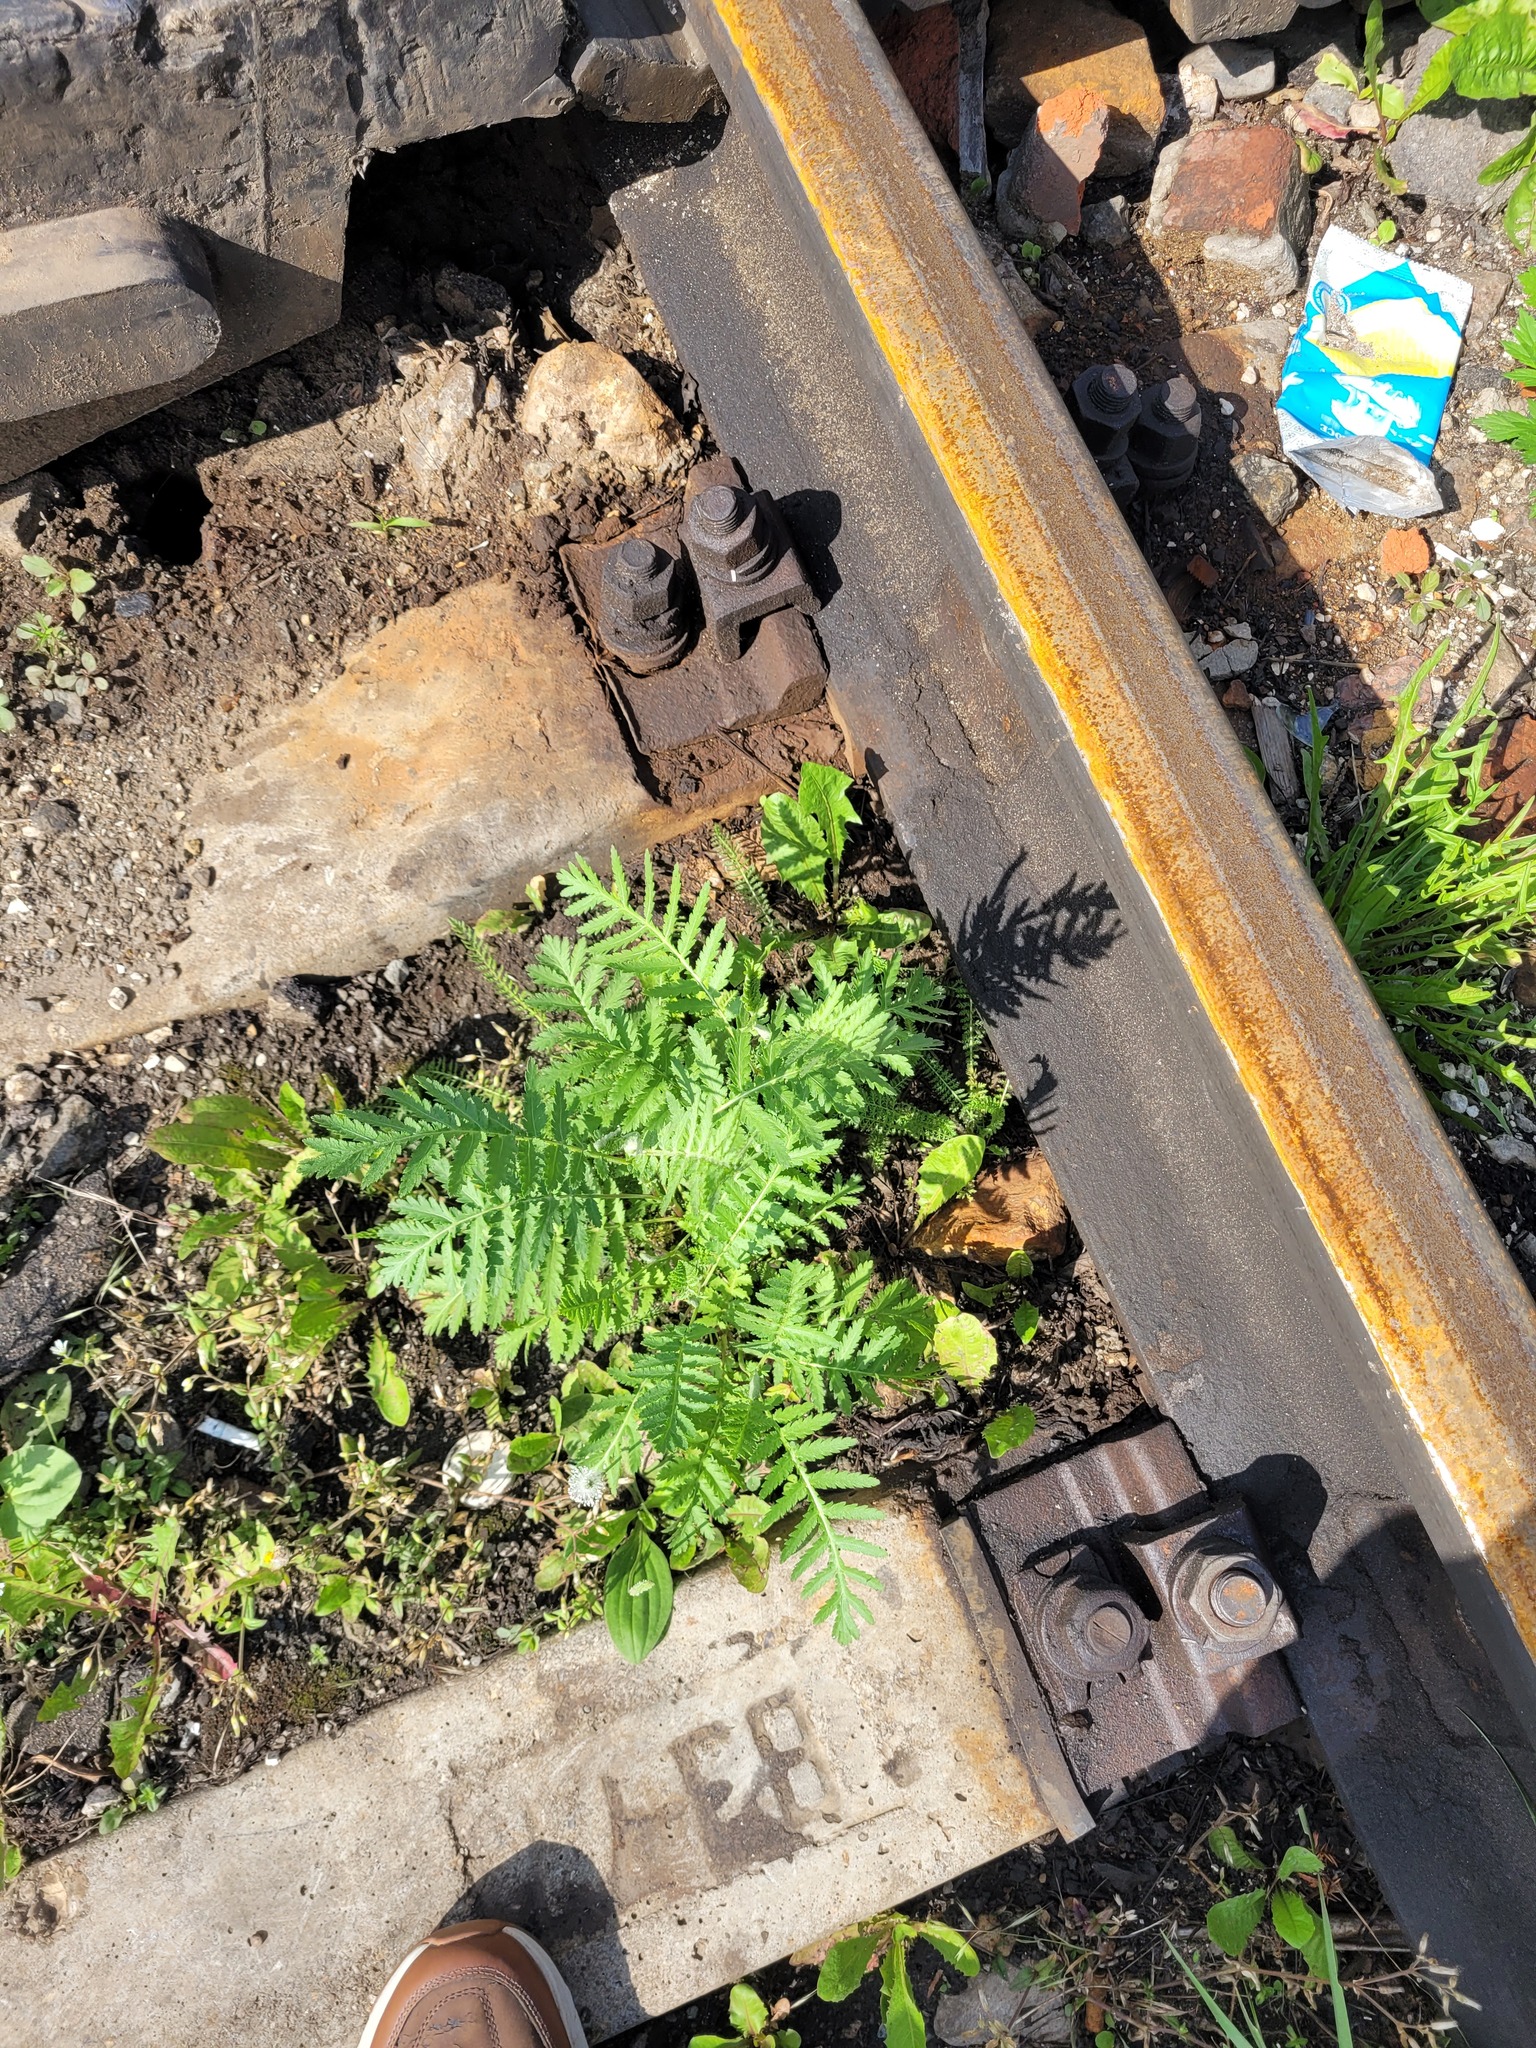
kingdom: Plantae
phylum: Tracheophyta
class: Magnoliopsida
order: Asterales
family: Asteraceae
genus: Tanacetum
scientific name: Tanacetum vulgare
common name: Common tansy
